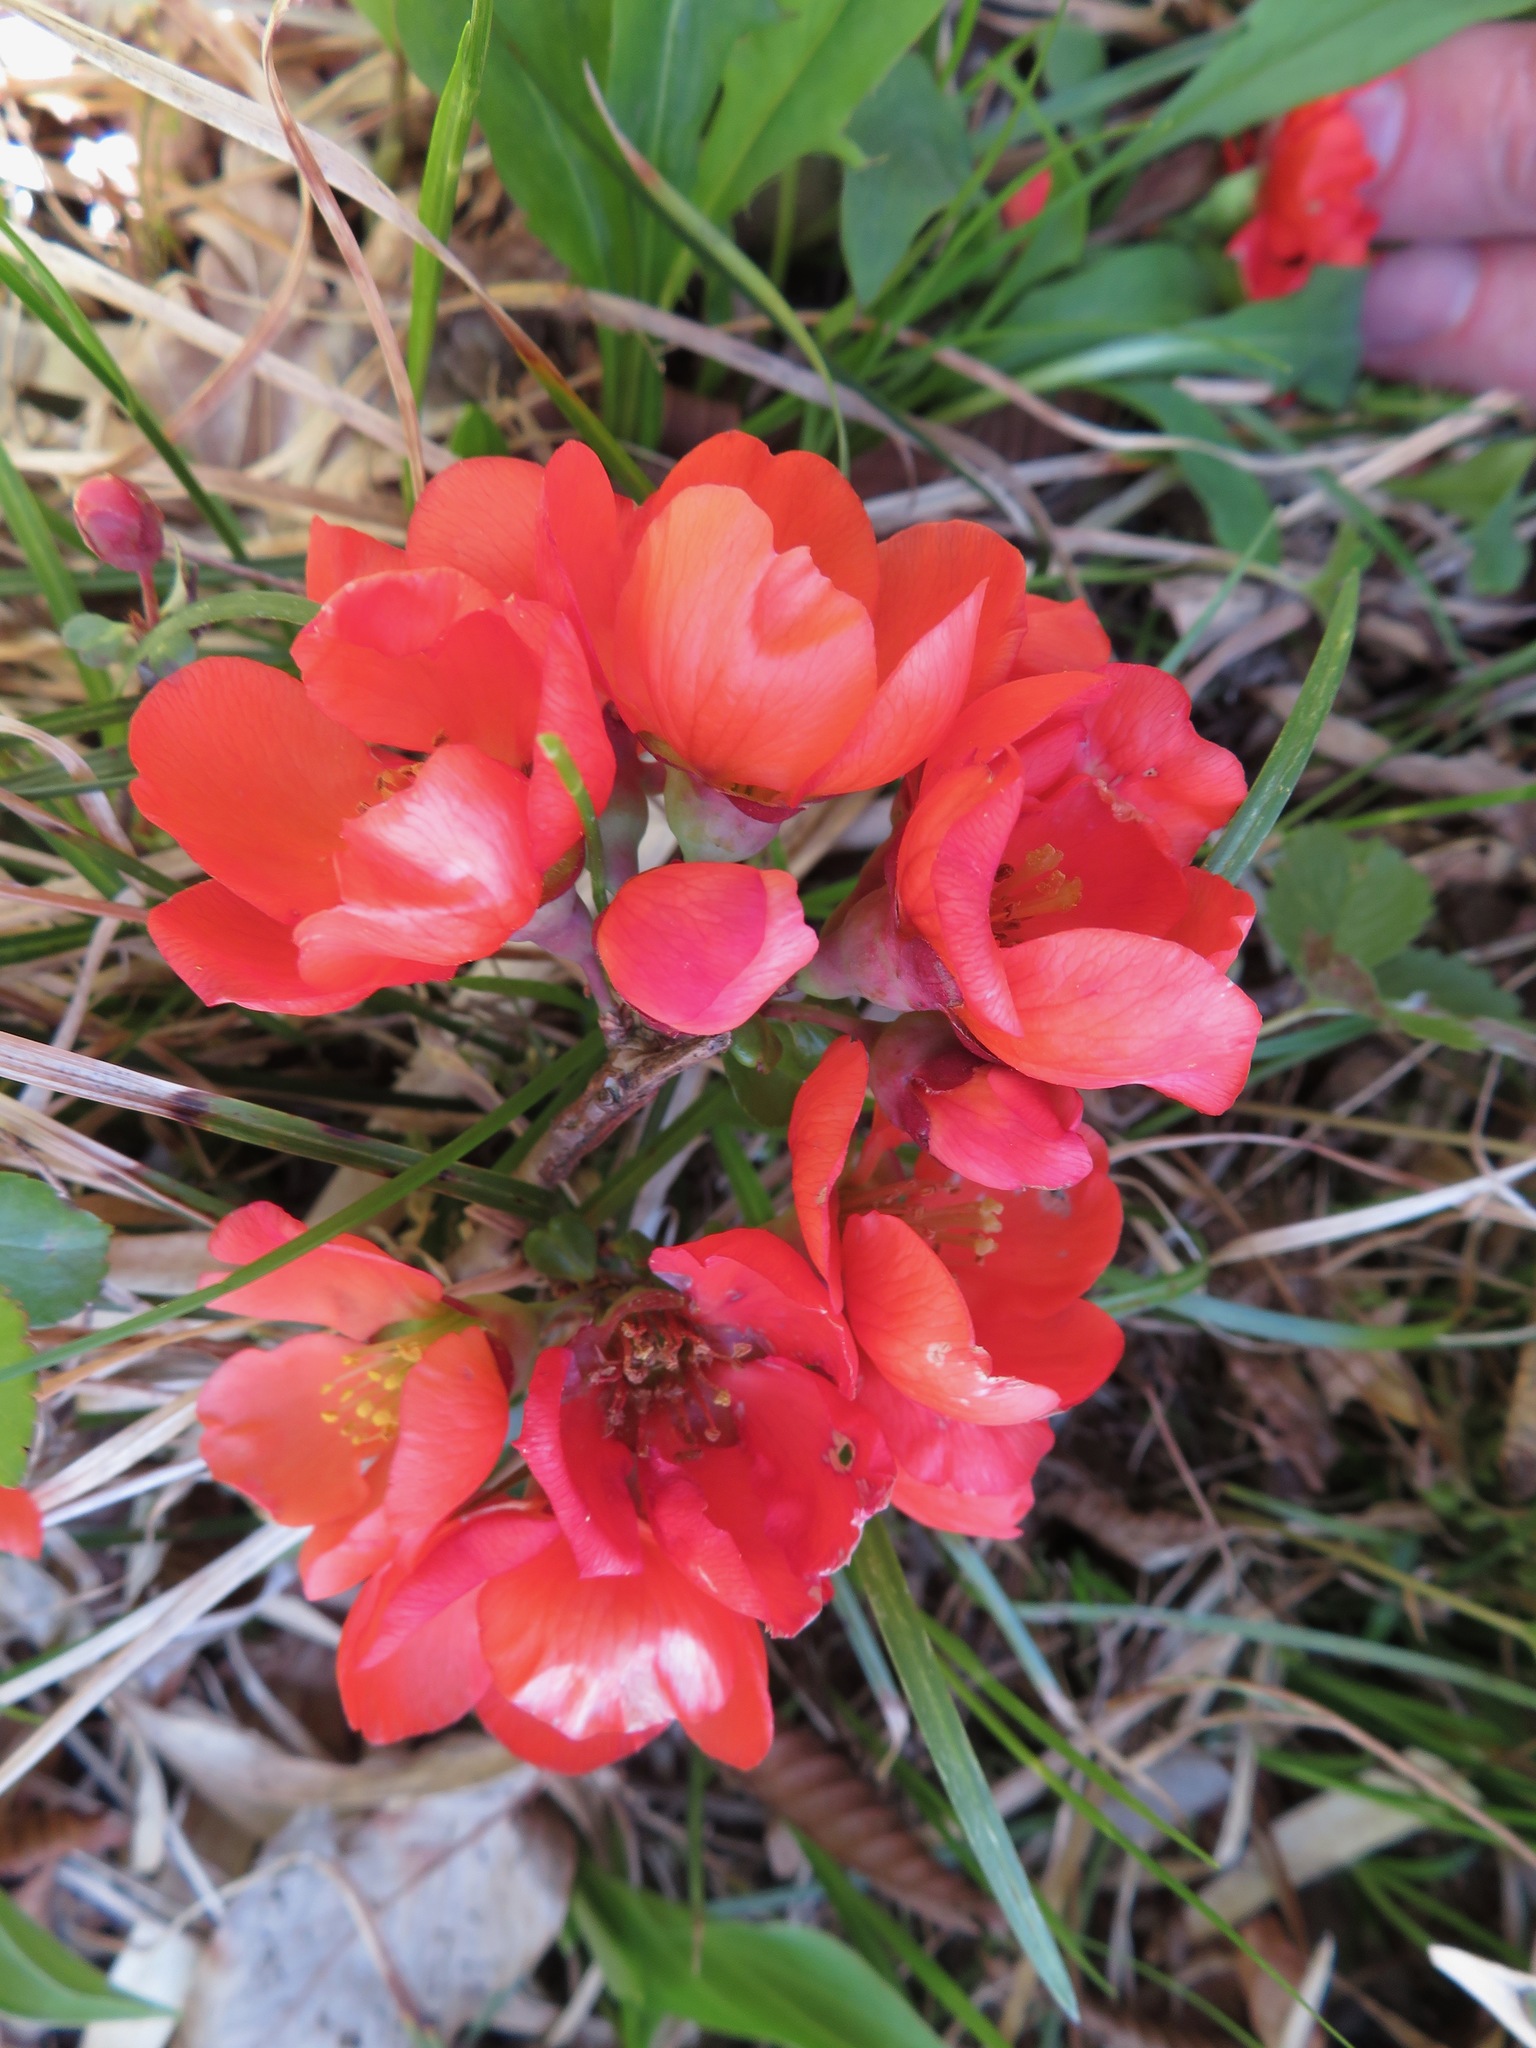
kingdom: Plantae
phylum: Tracheophyta
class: Magnoliopsida
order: Rosales
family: Rosaceae
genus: Chaenomeles
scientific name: Chaenomeles japonica
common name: Japanese quince
